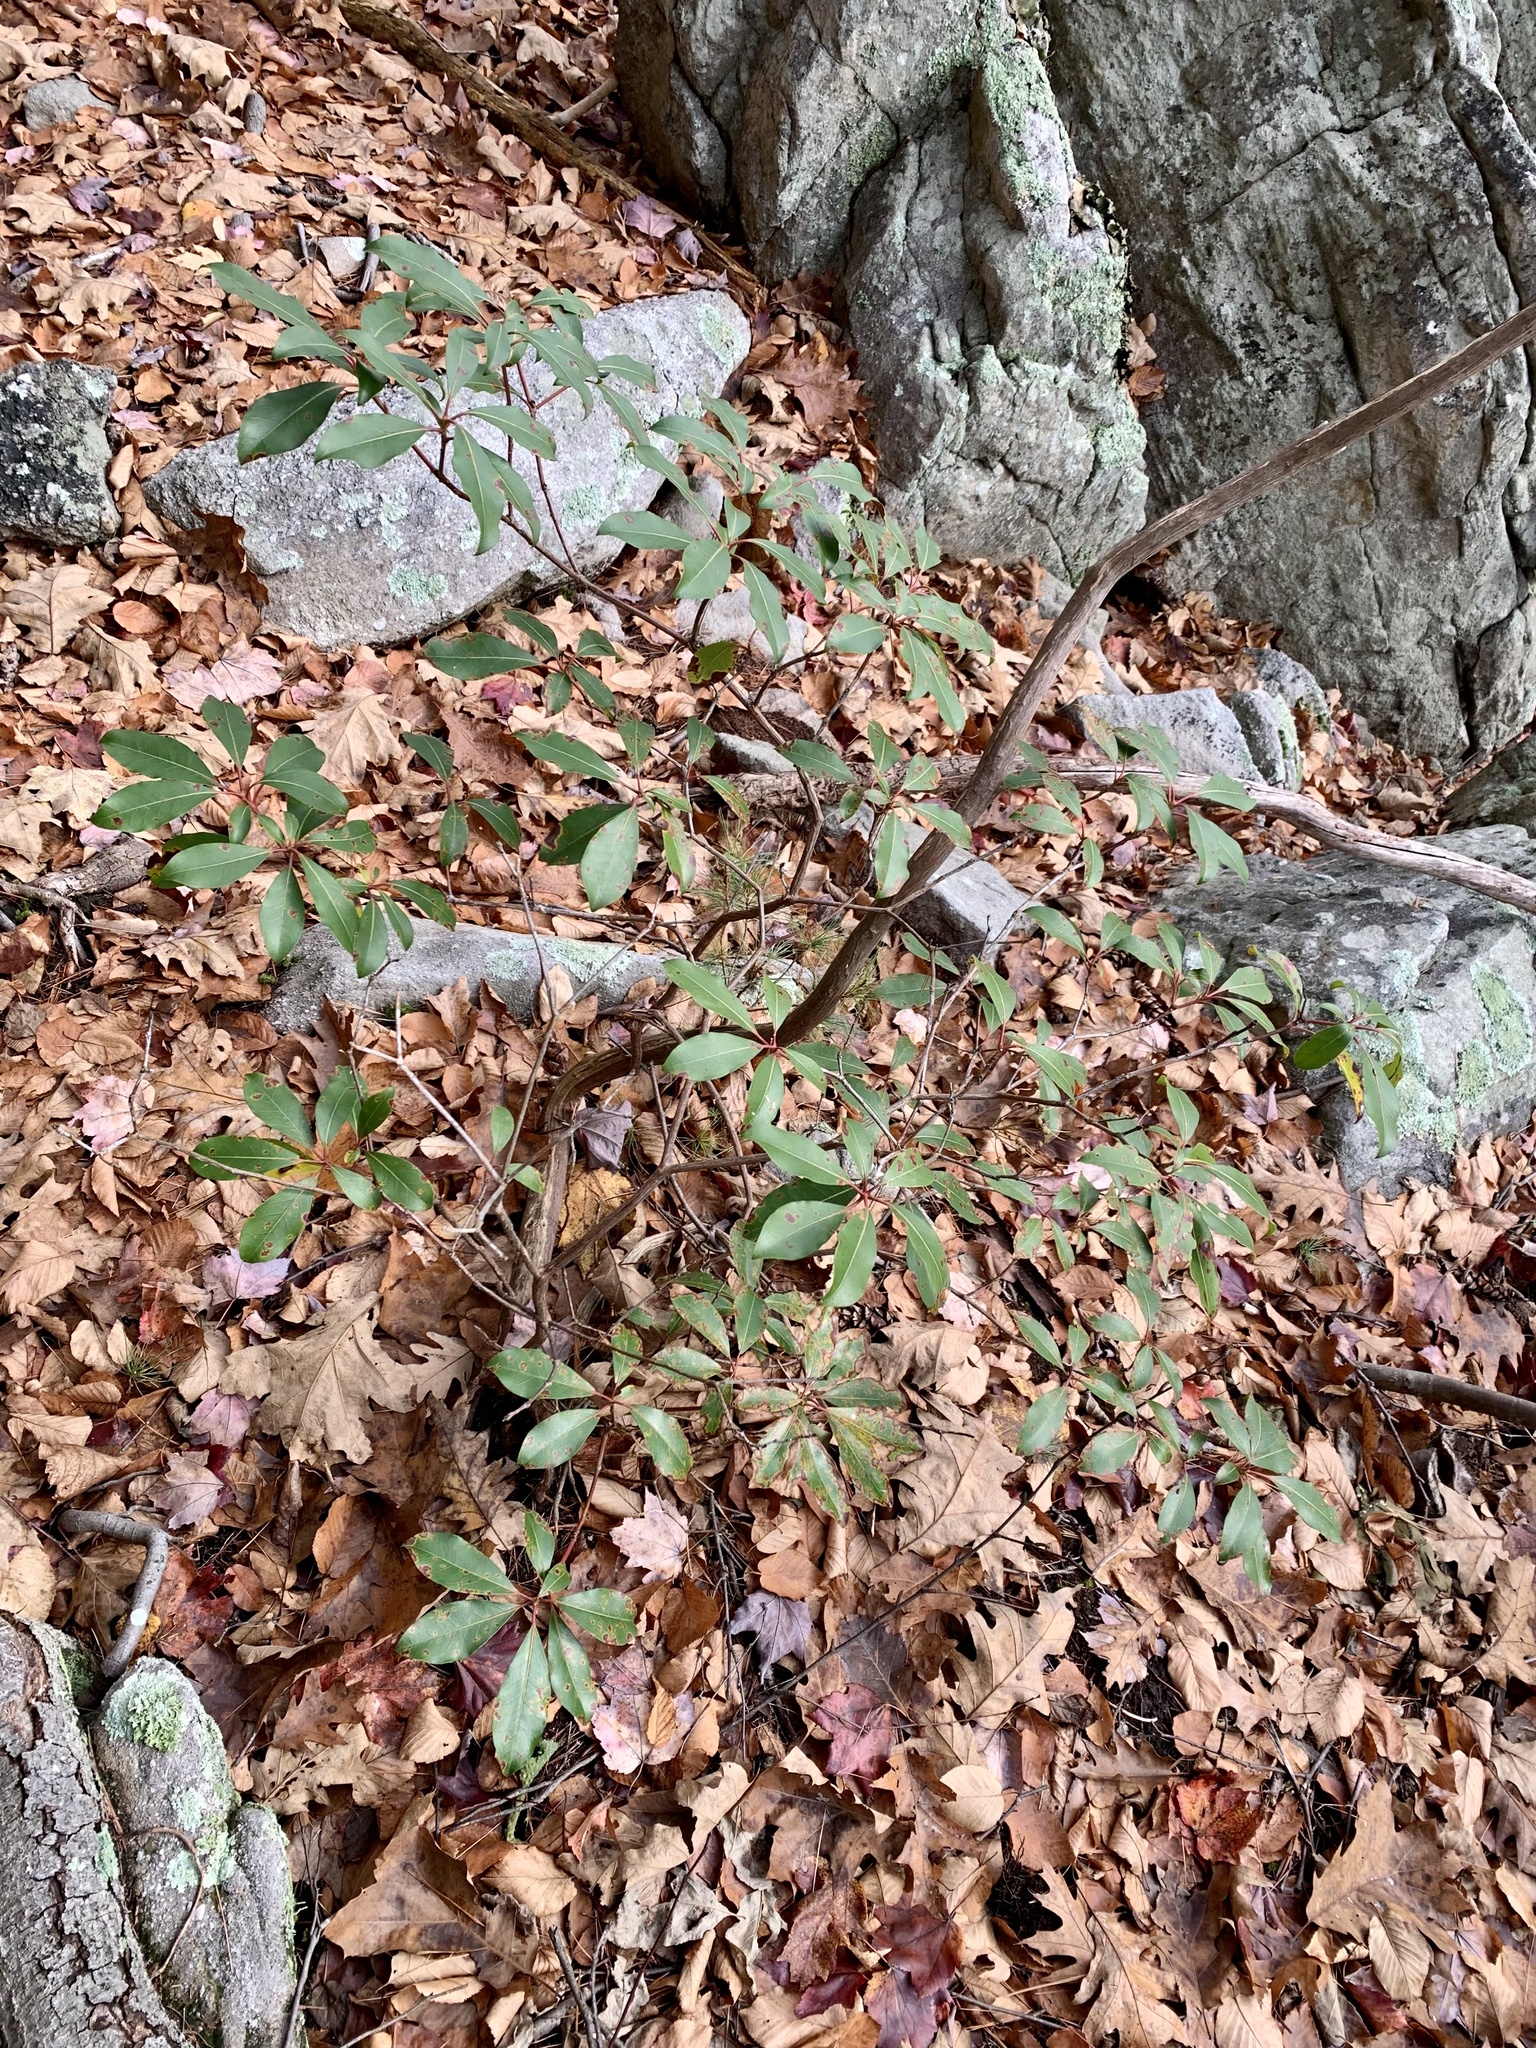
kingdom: Plantae
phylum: Tracheophyta
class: Magnoliopsida
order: Ericales
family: Ericaceae
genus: Kalmia
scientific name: Kalmia latifolia
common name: Mountain-laurel
